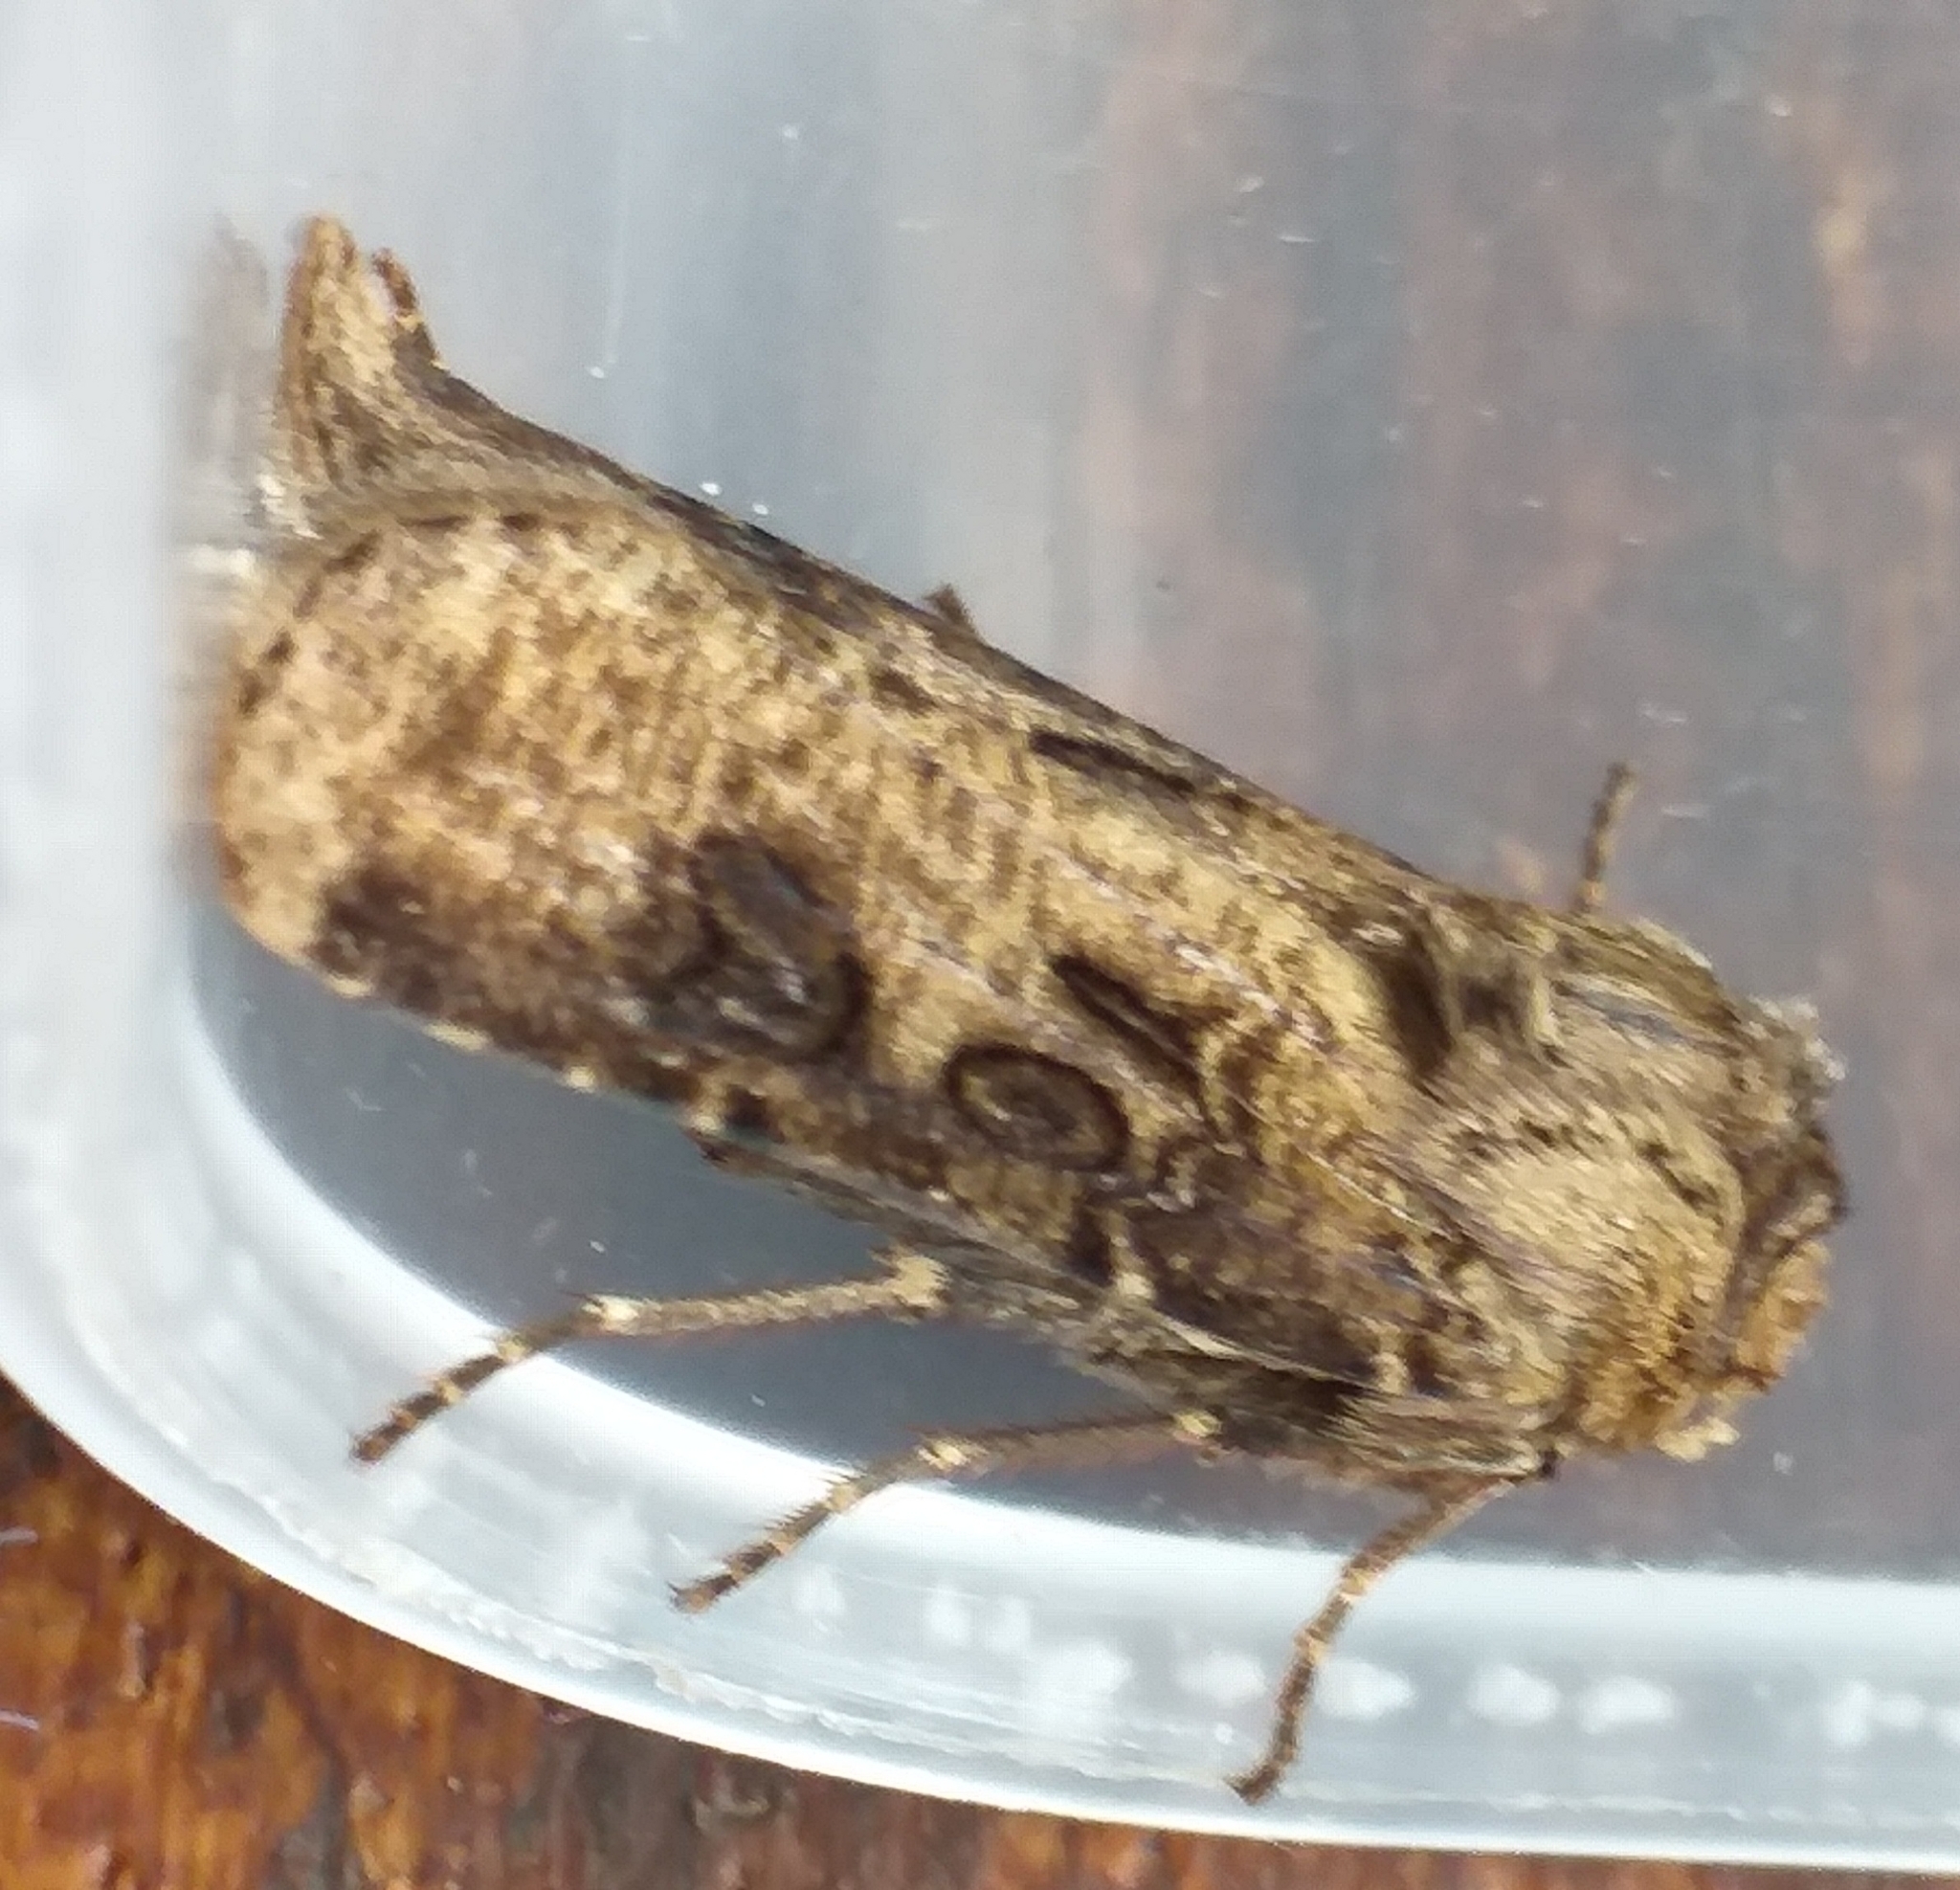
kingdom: Animalia
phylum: Arthropoda
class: Insecta
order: Lepidoptera
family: Noctuidae
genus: Agrotis
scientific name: Agrotis clavis
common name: Heart and club
